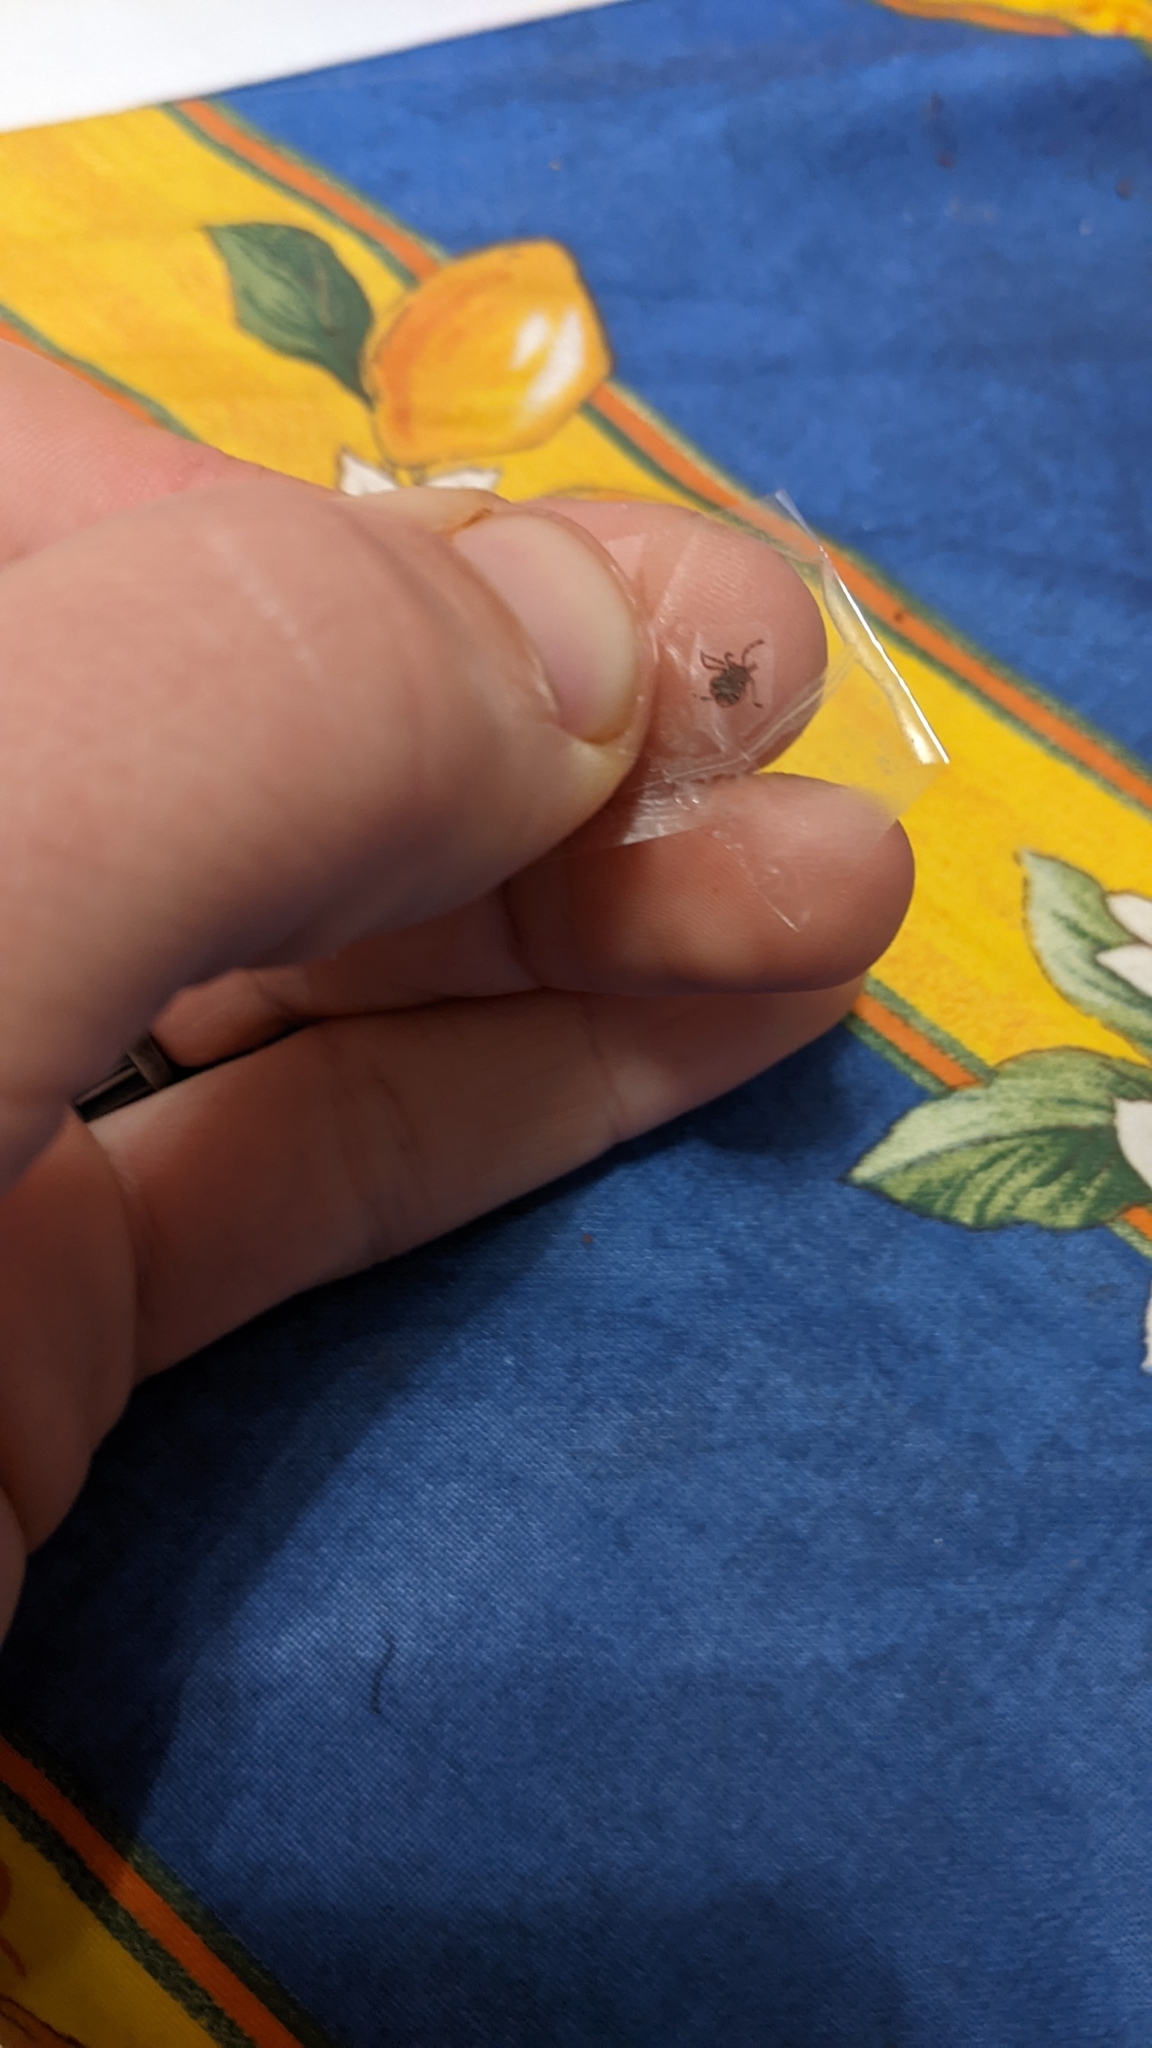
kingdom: Animalia
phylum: Arthropoda
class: Arachnida
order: Ixodida
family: Ixodidae
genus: Amblyomma
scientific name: Amblyomma americanum
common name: Lone star tick
